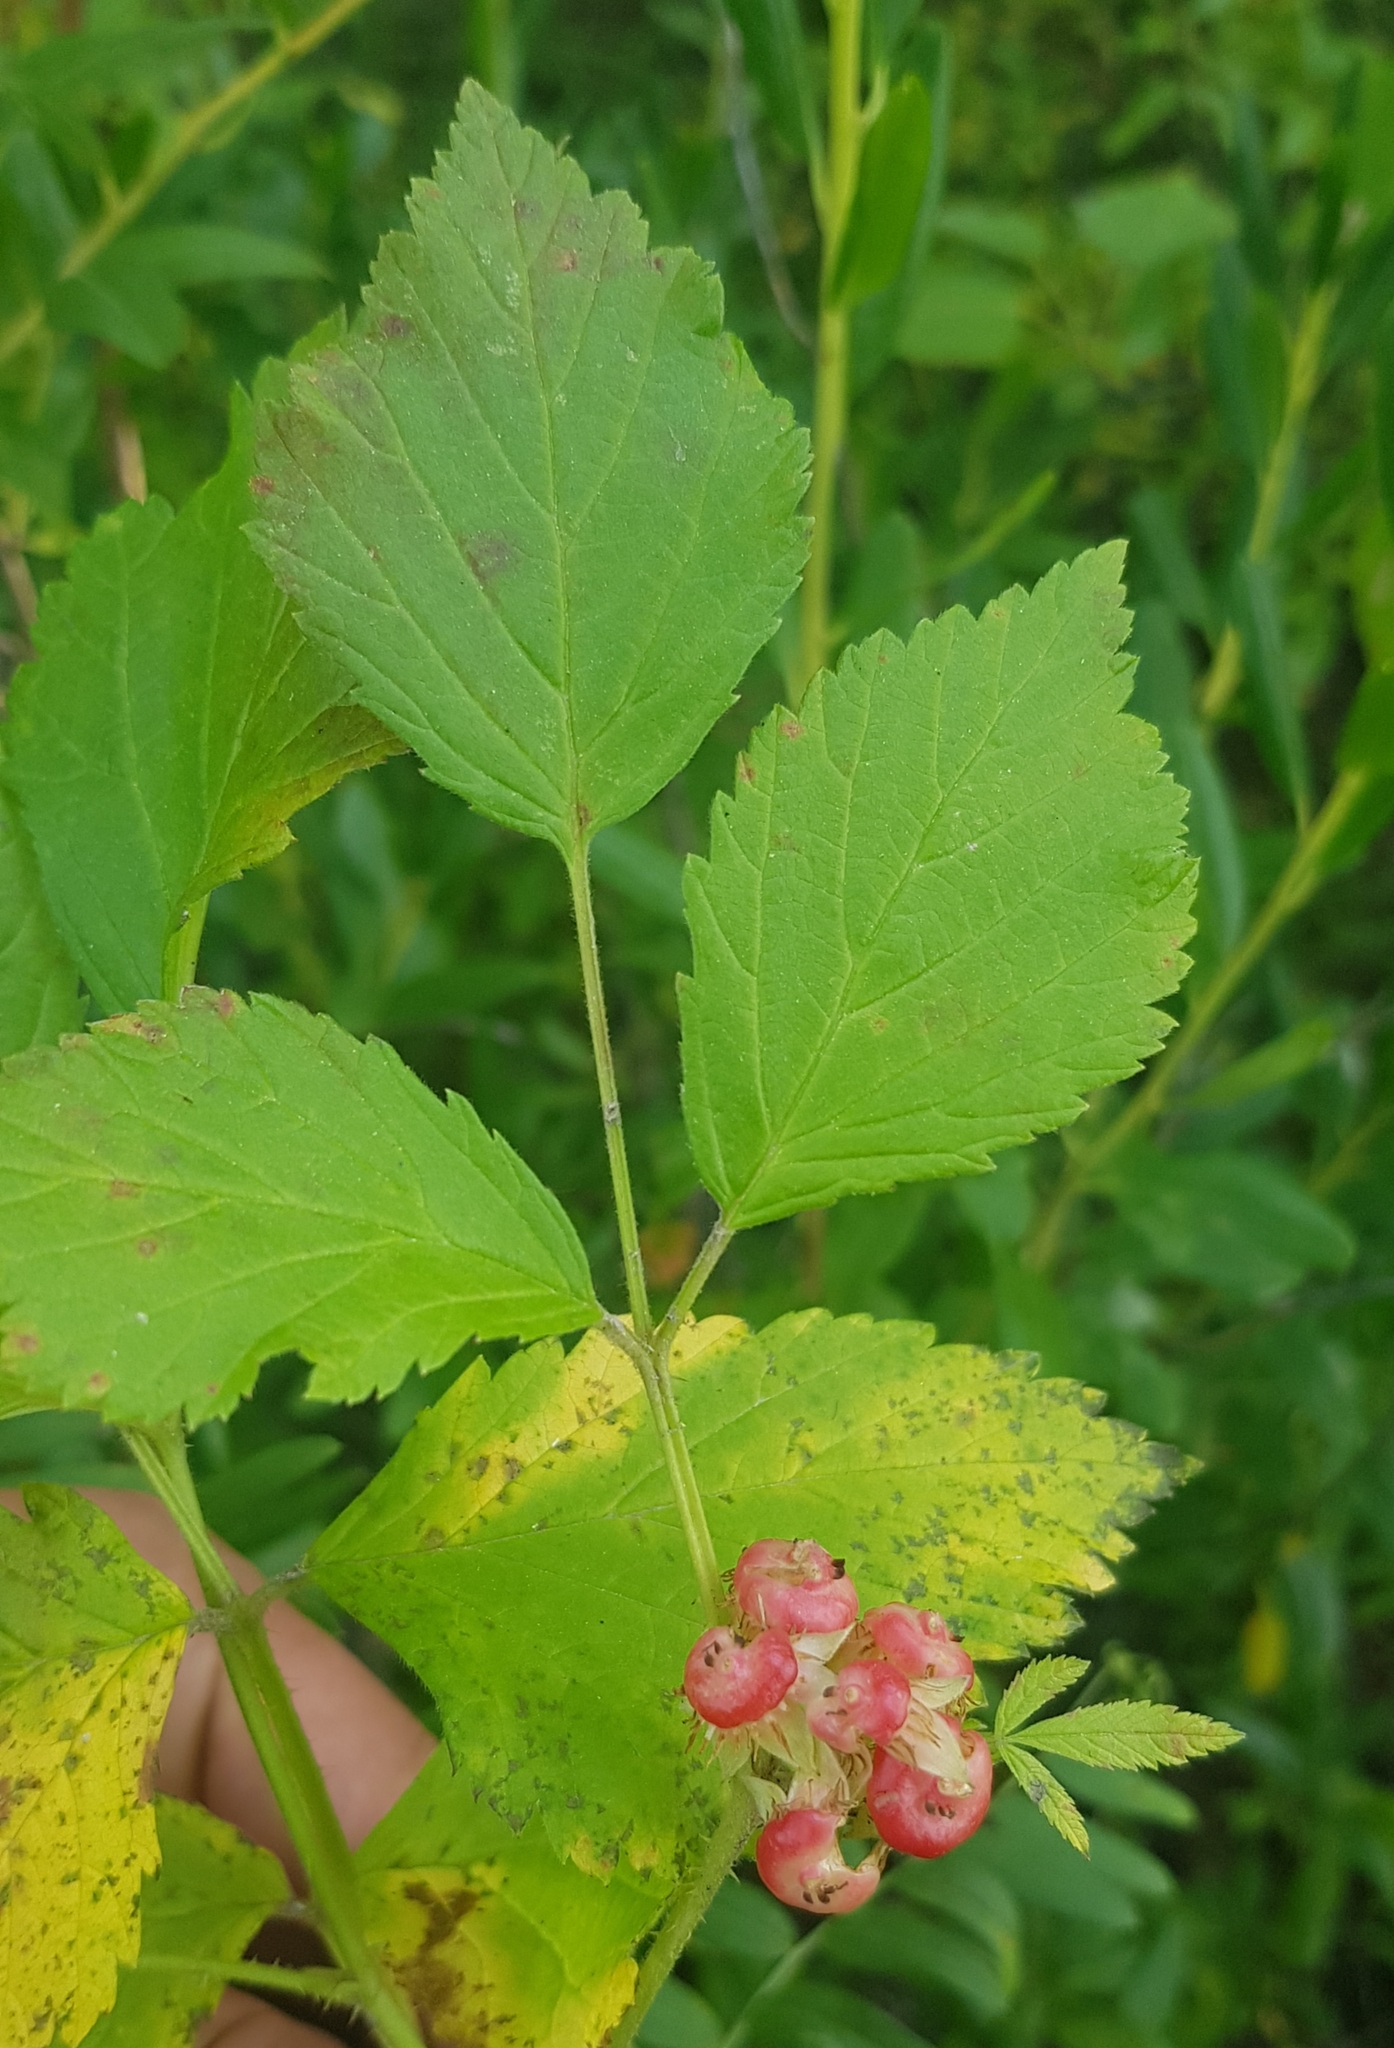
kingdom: Plantae
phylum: Tracheophyta
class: Magnoliopsida
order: Rosales
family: Rosaceae
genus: Rubus
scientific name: Rubus saxatilis
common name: Stone bramble
